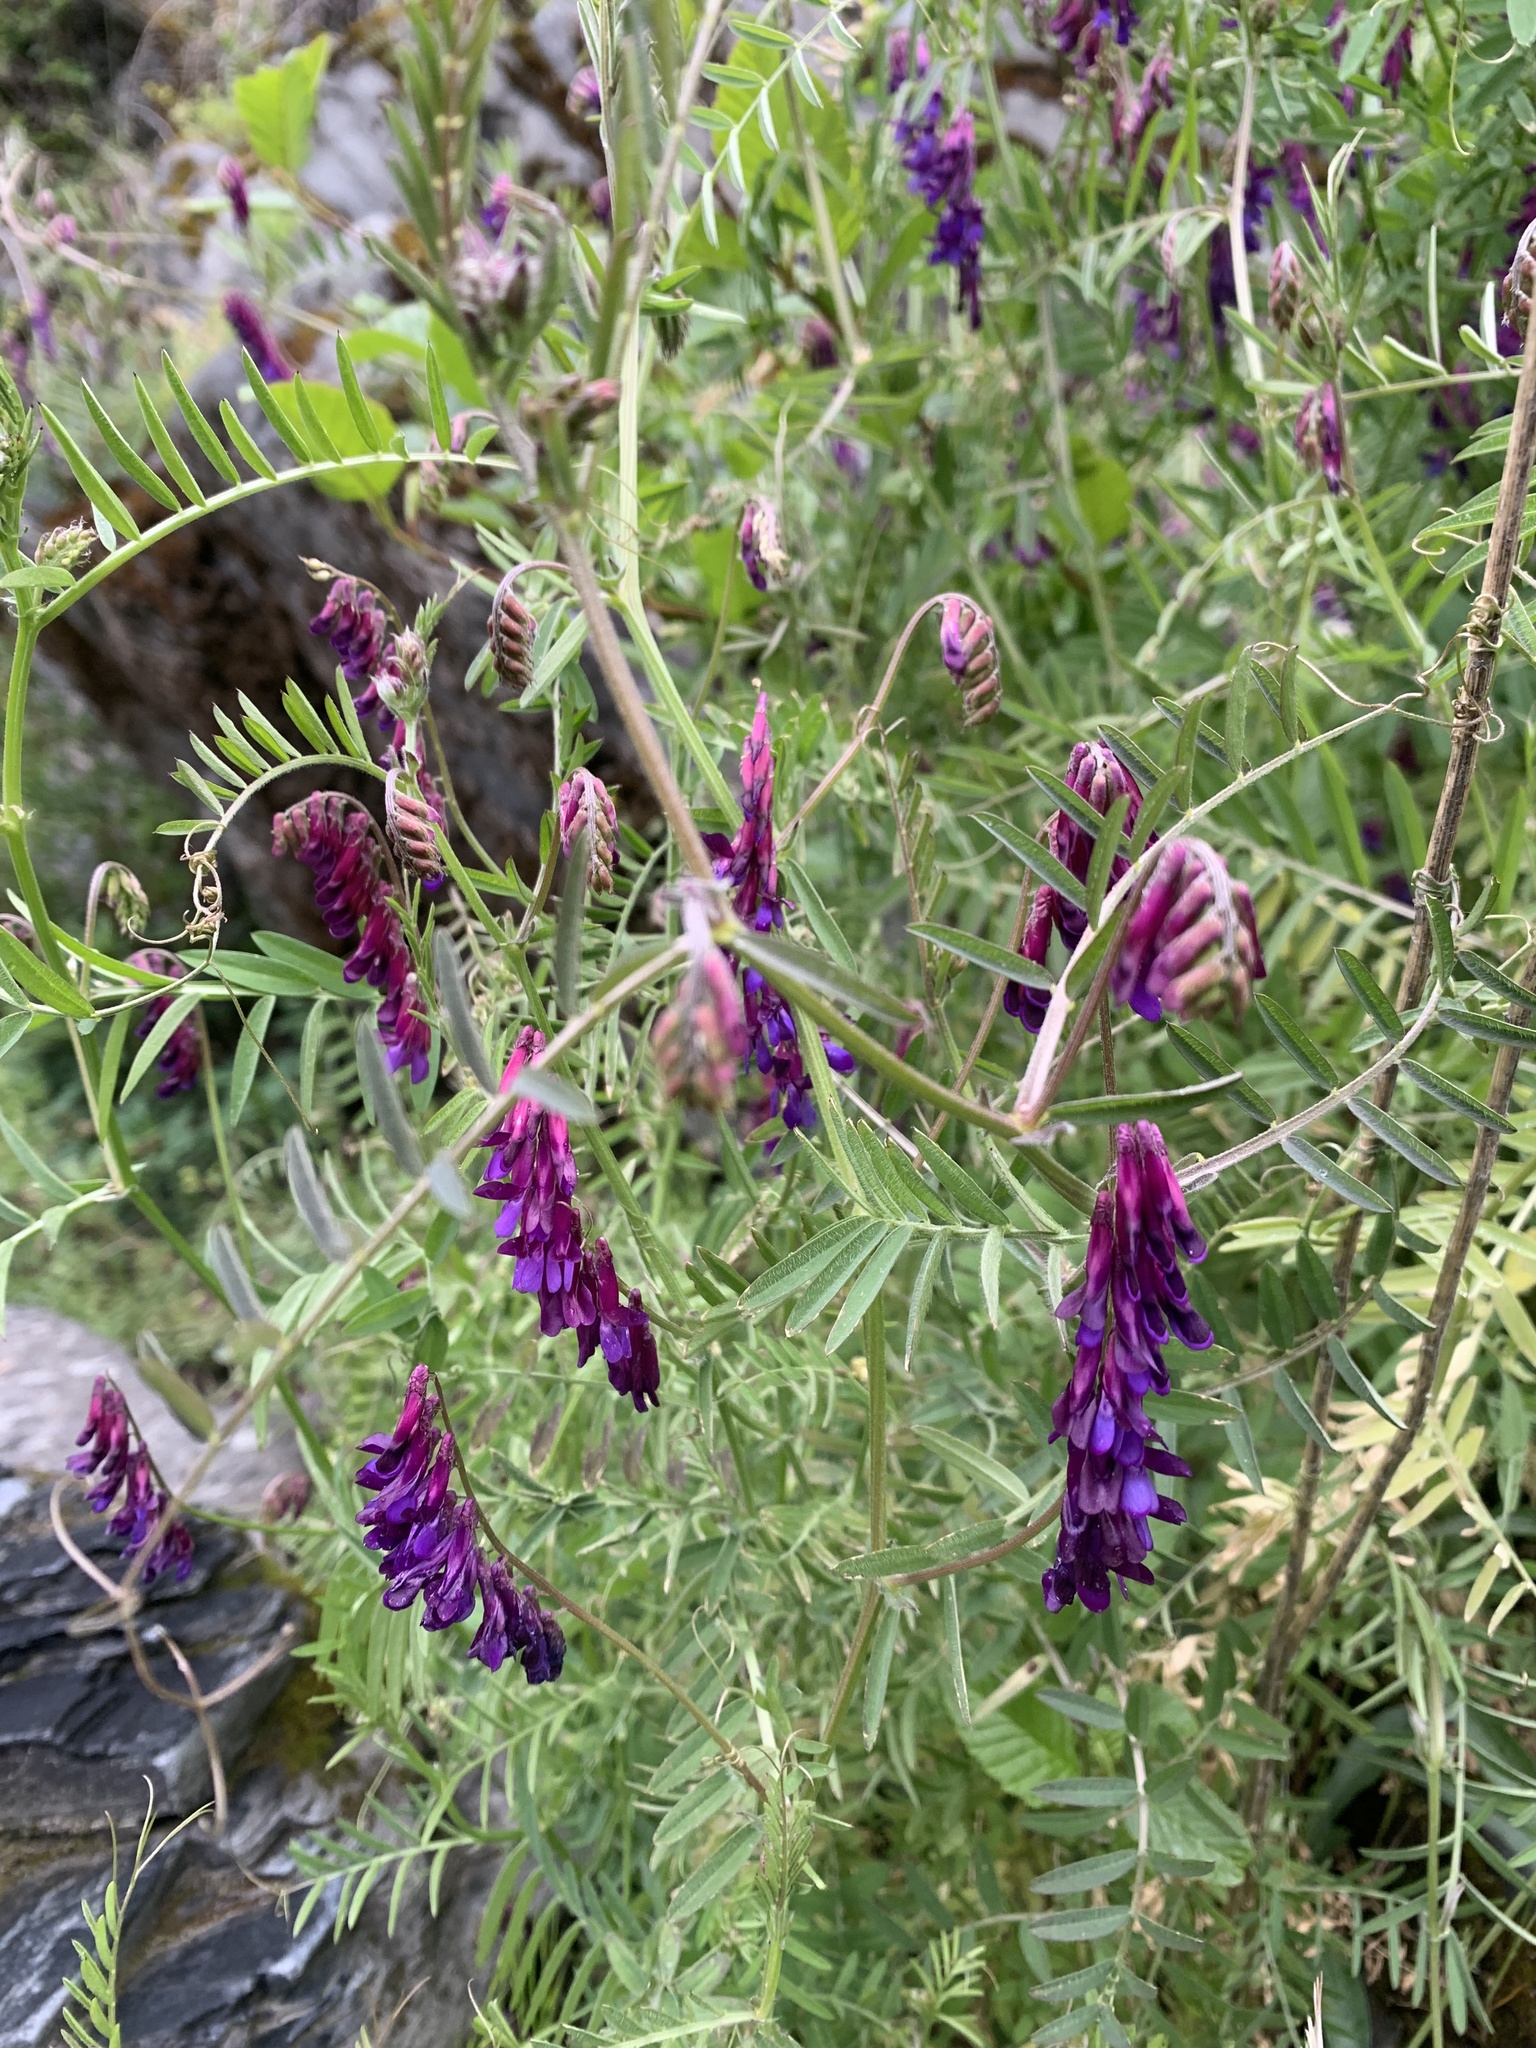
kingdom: Plantae
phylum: Tracheophyta
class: Magnoliopsida
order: Fabales
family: Fabaceae
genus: Vicia
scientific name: Vicia villosa
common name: Fodder vetch
